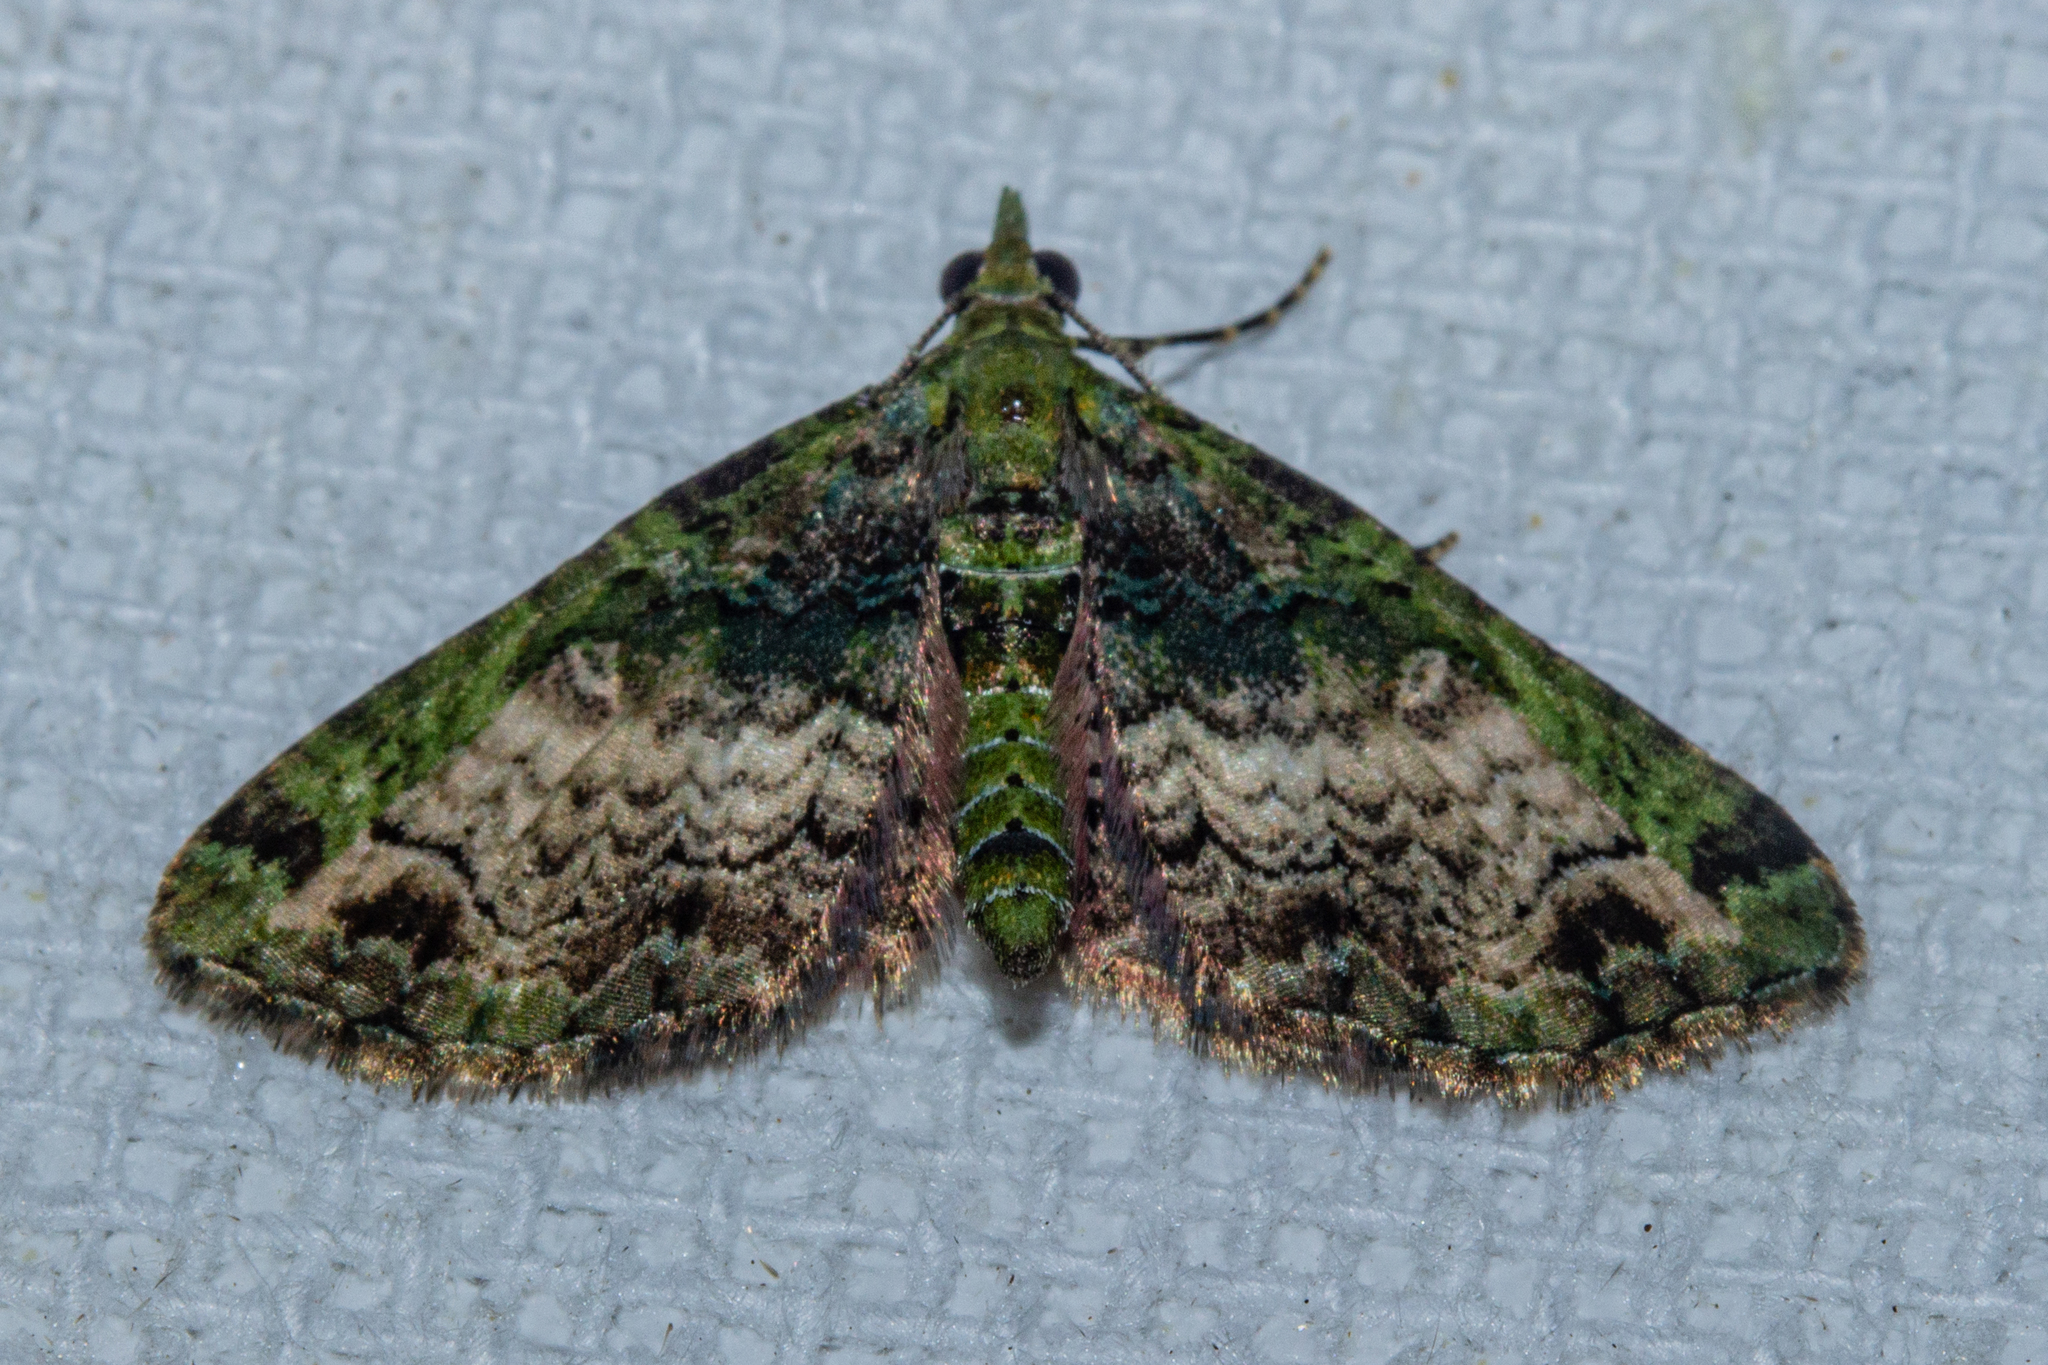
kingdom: Animalia
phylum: Arthropoda
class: Insecta
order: Lepidoptera
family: Geometridae
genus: Pasiphila
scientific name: Pasiphila malachita
